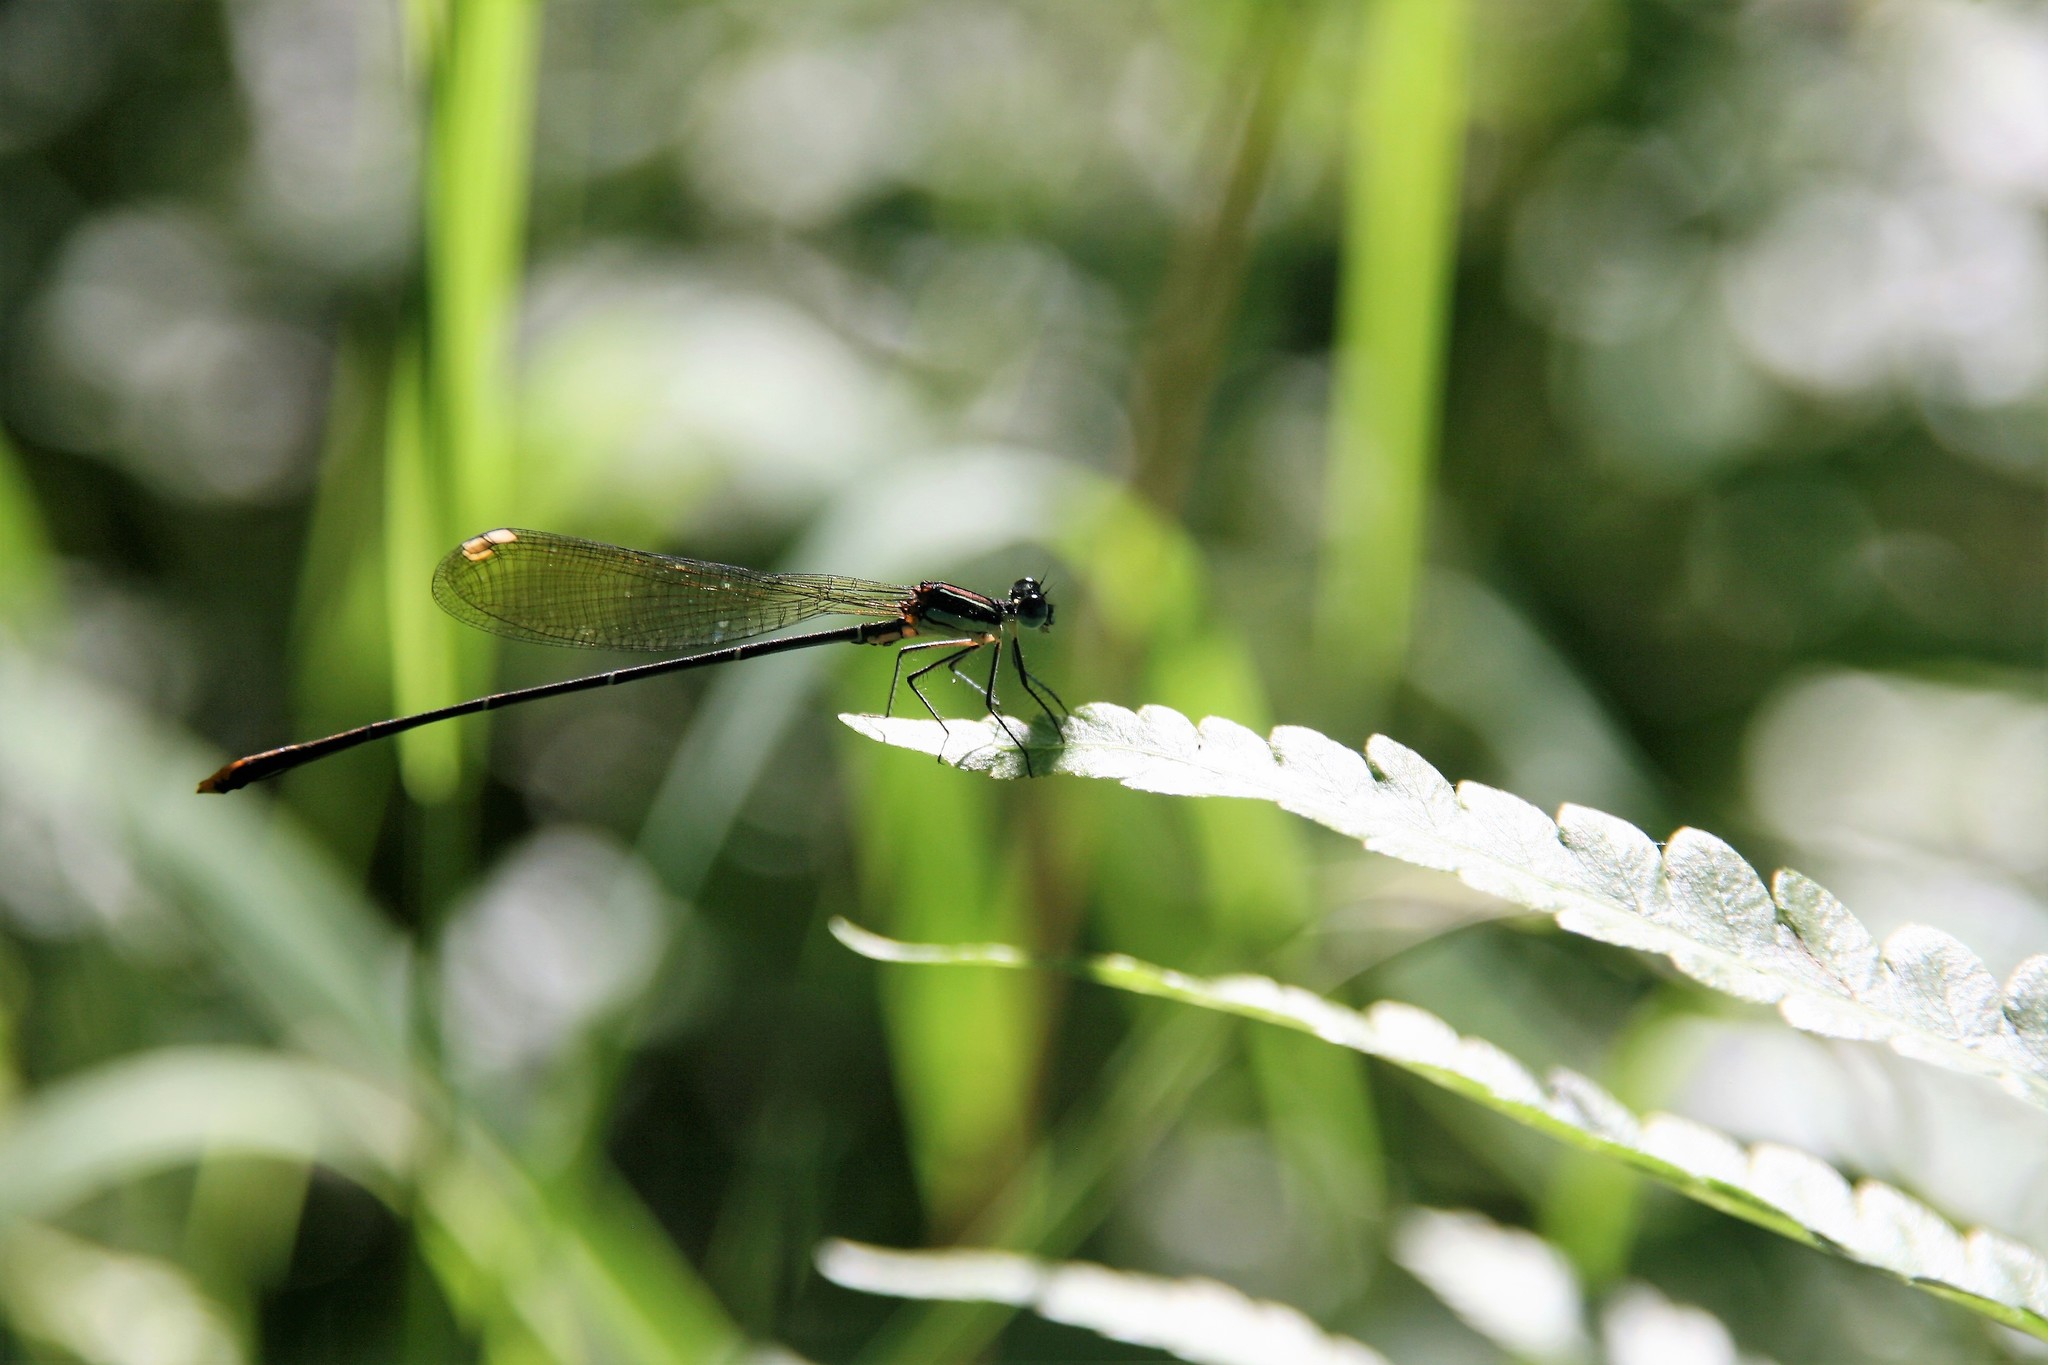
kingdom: Animalia
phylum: Arthropoda
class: Insecta
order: Odonata
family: Platycnemididae
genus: Allocnemis
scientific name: Allocnemis leucosticta
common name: Goldtail
